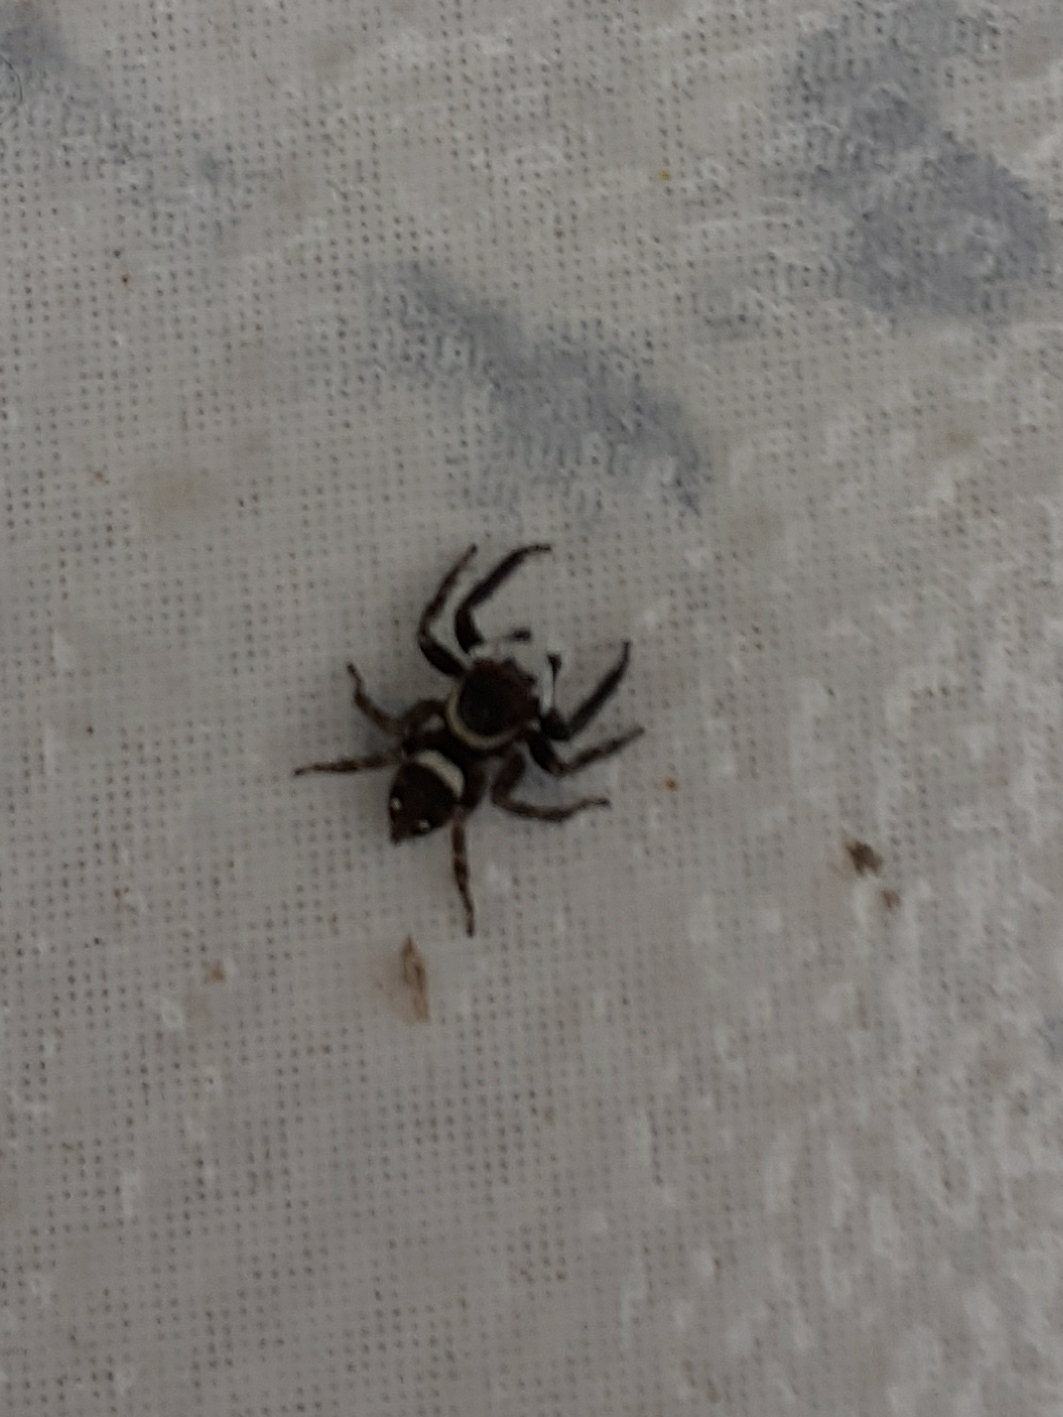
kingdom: Animalia
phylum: Arthropoda
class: Arachnida
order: Araneae
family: Salticidae
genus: Hasarius
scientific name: Hasarius adansoni
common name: Jumping spider
